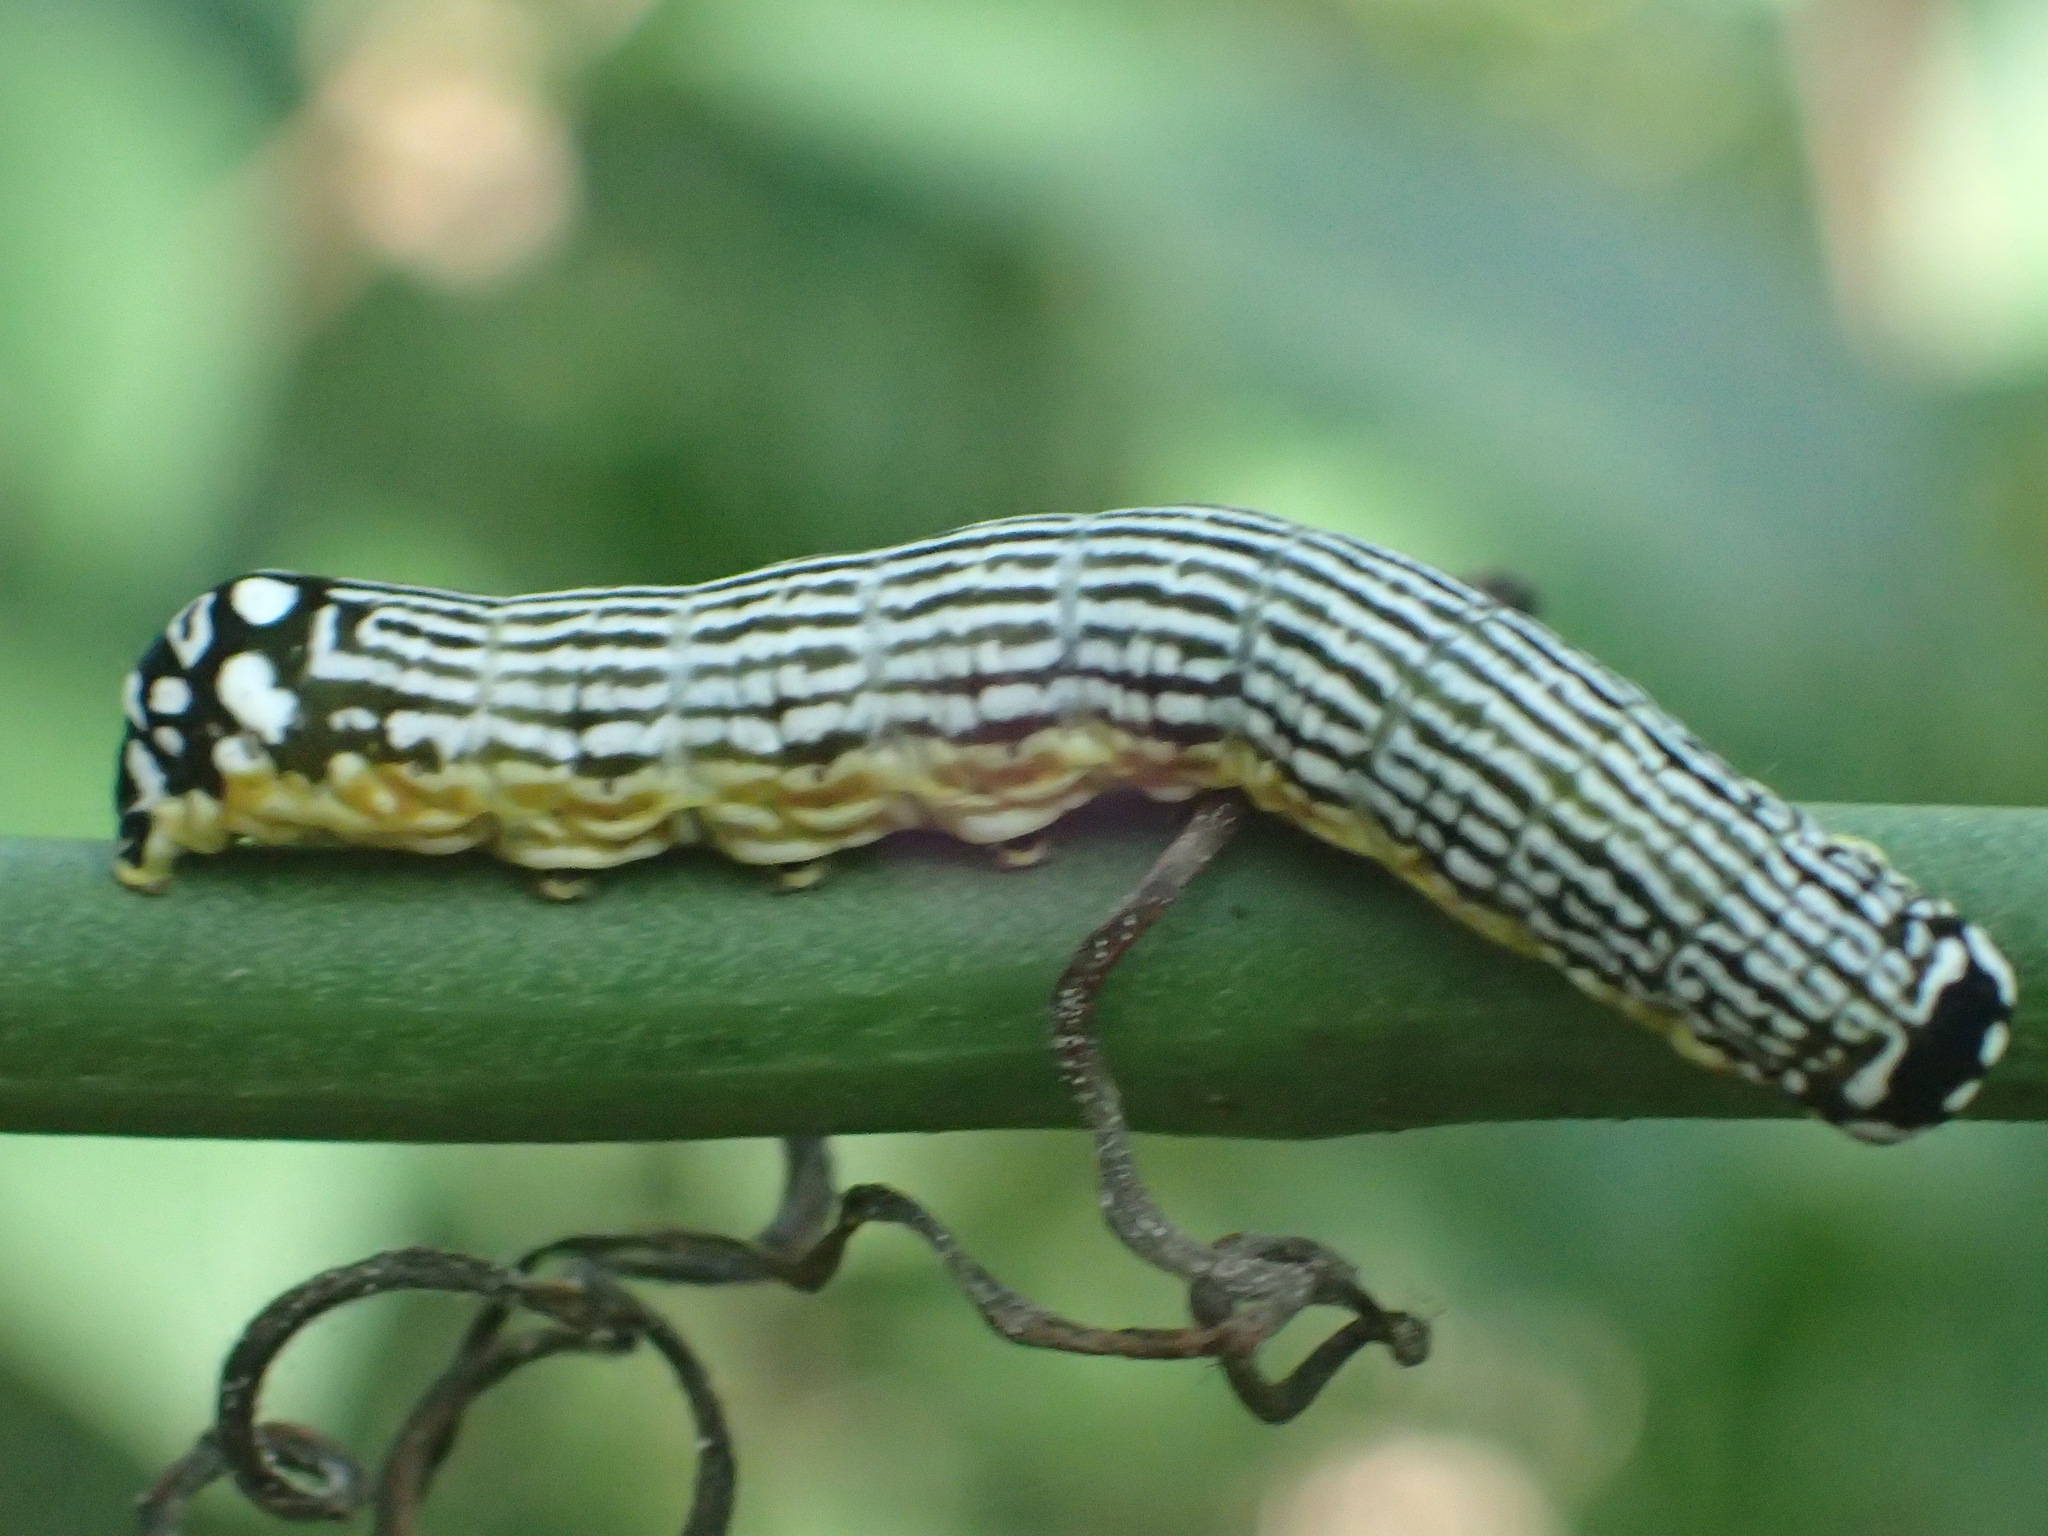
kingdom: Animalia
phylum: Arthropoda
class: Insecta
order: Lepidoptera
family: Noctuidae
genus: Phosphila
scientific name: Phosphila turbulenta
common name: Turbulent phosphila moth
